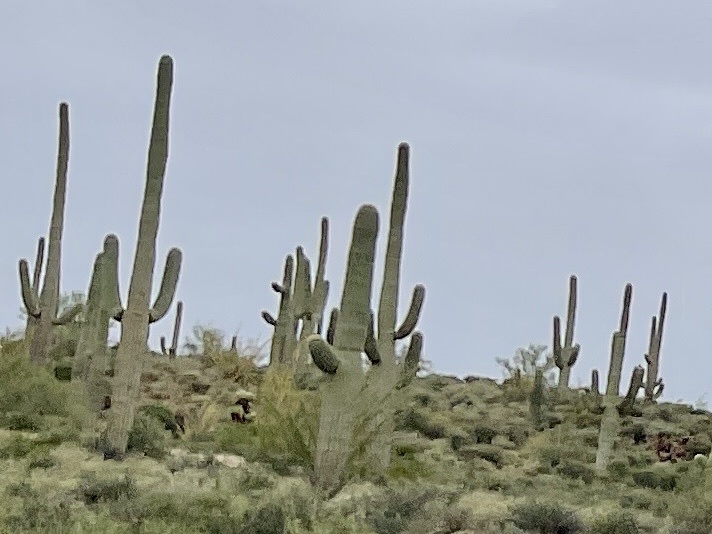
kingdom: Plantae
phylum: Tracheophyta
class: Magnoliopsida
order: Caryophyllales
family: Cactaceae
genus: Carnegiea
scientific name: Carnegiea gigantea
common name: Saguaro
